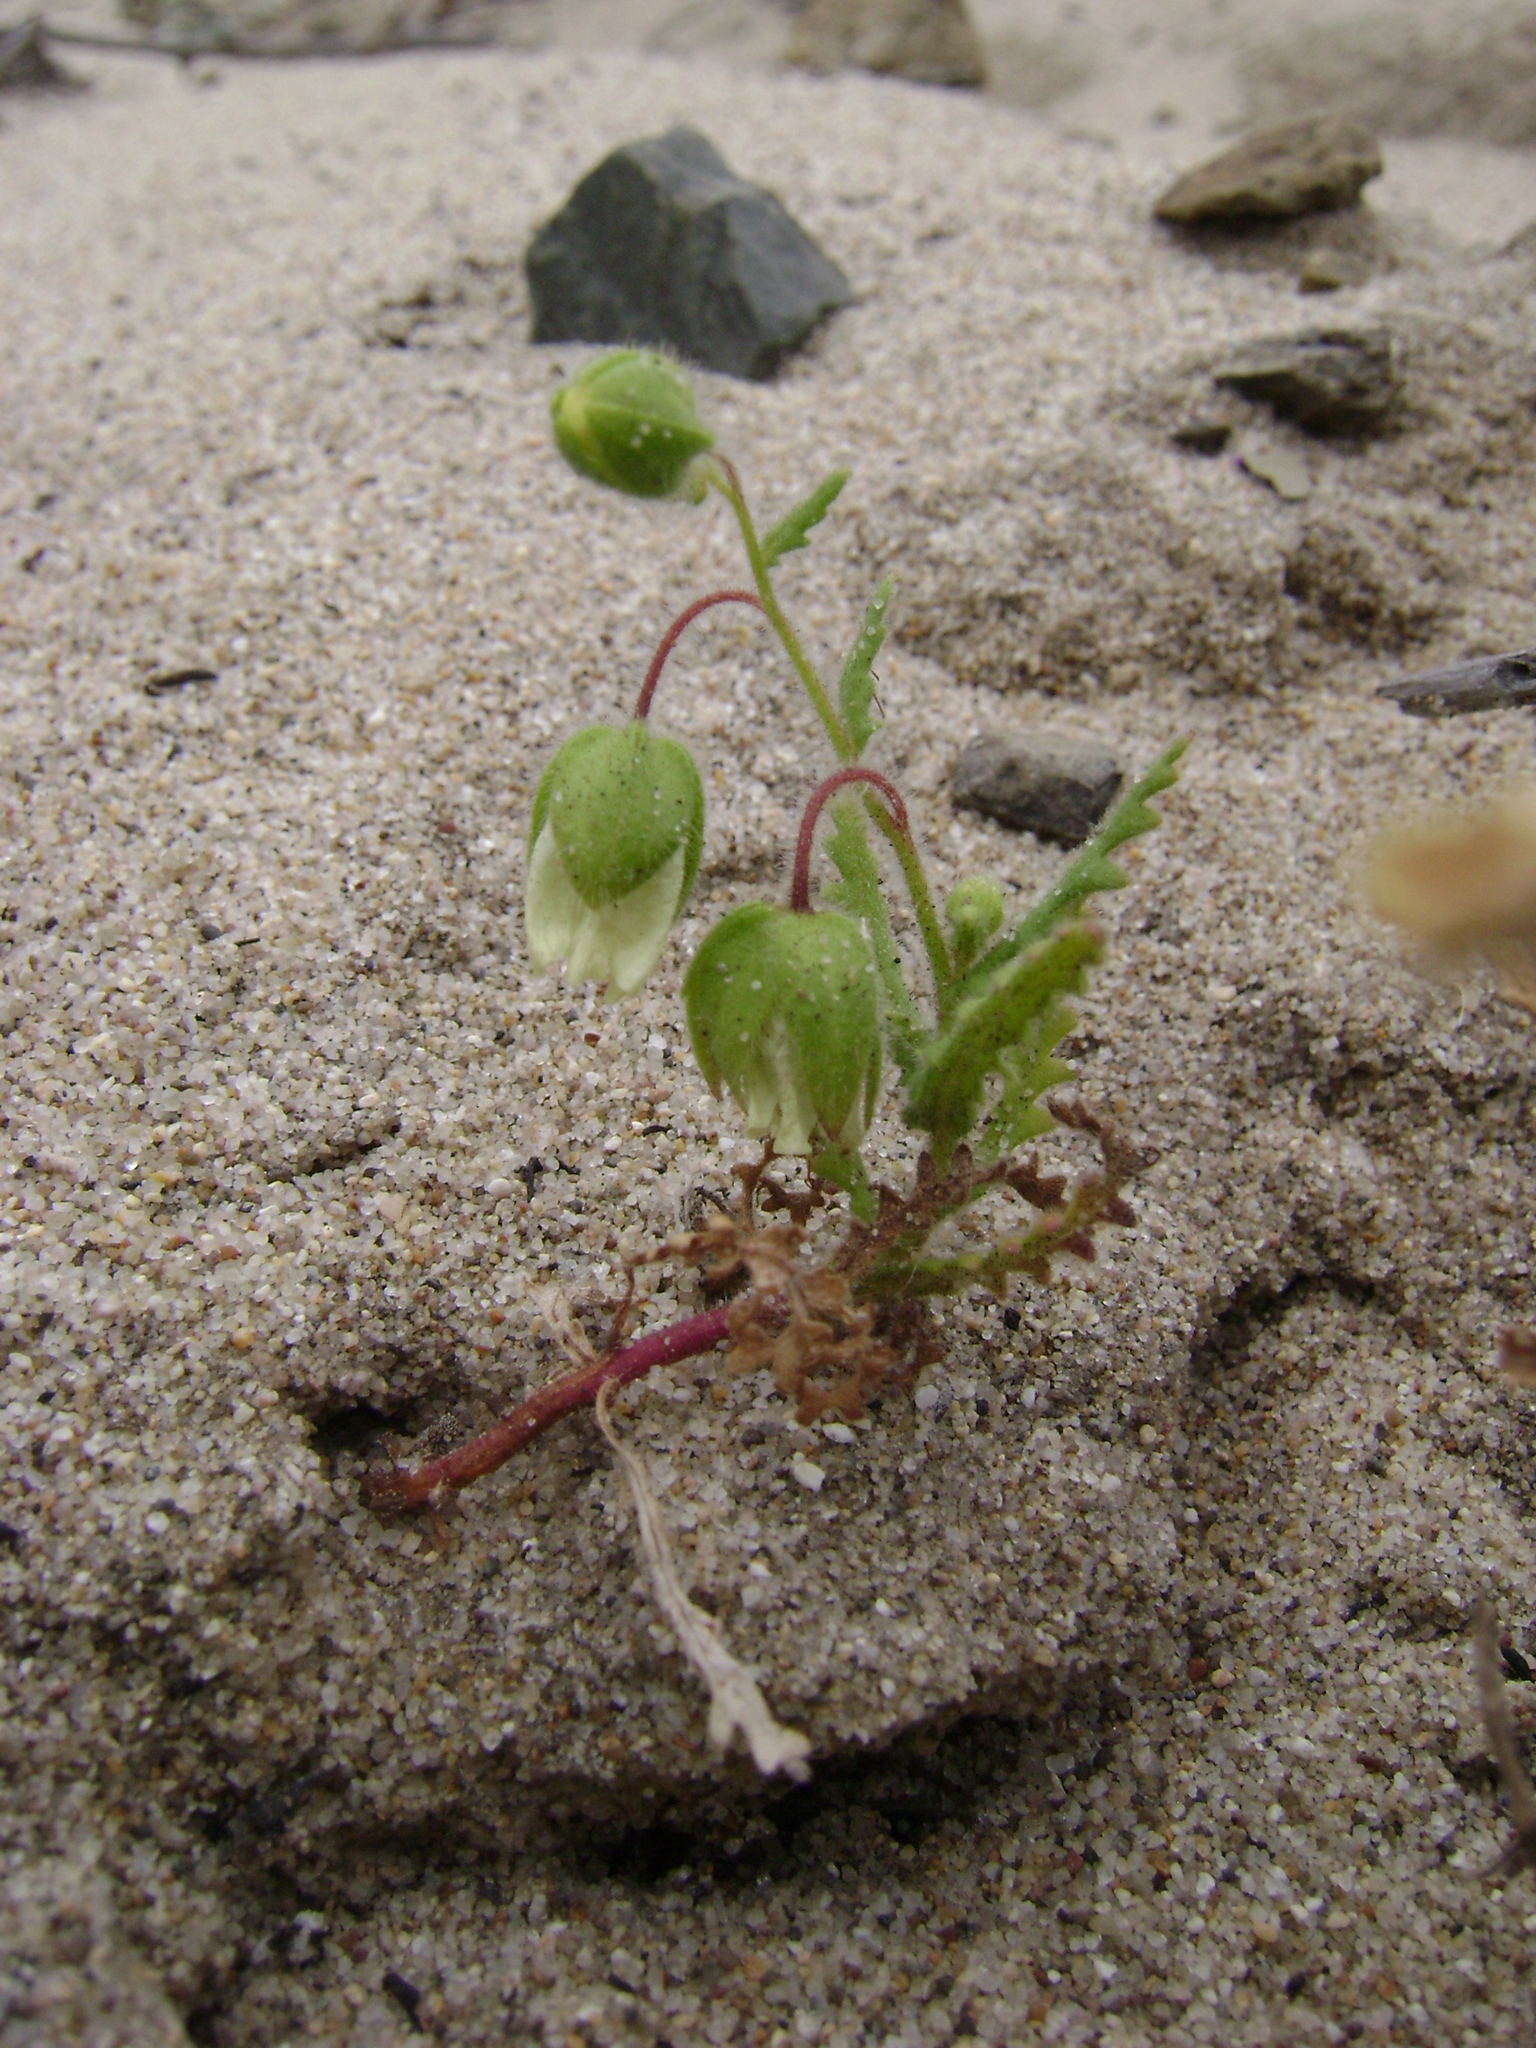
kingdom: Plantae
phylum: Tracheophyta
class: Magnoliopsida
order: Boraginales
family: Hydrophyllaceae
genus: Emmenanthe
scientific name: Emmenanthe penduliflora
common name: Whispering-bells
